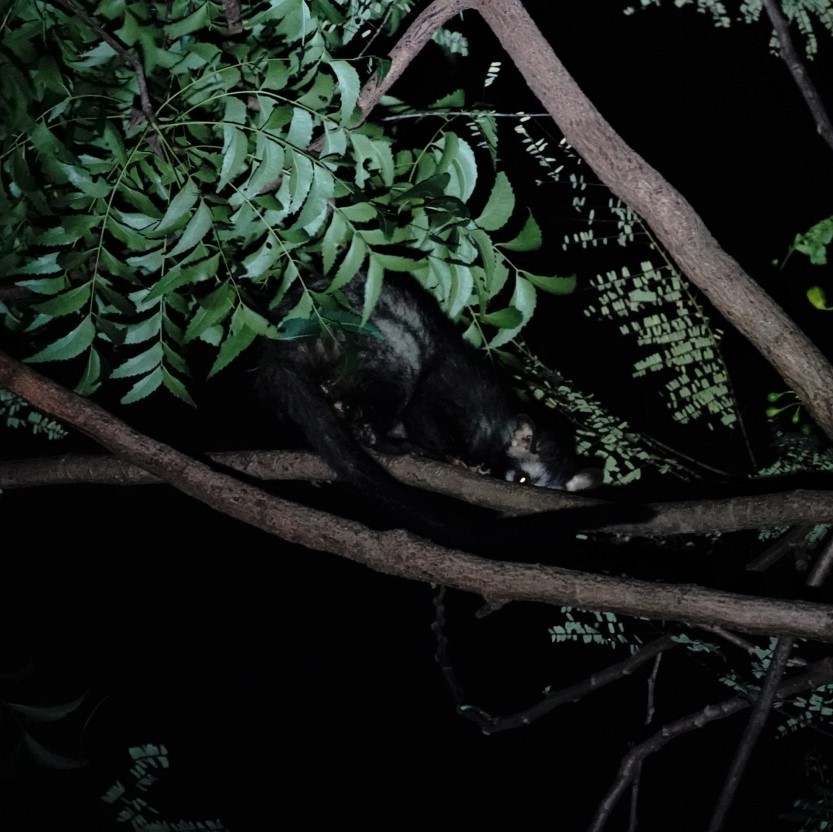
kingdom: Animalia
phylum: Chordata
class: Mammalia
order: Carnivora
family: Viverridae
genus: Paradoxurus
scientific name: Paradoxurus hermaphroditus
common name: Common palm civet
